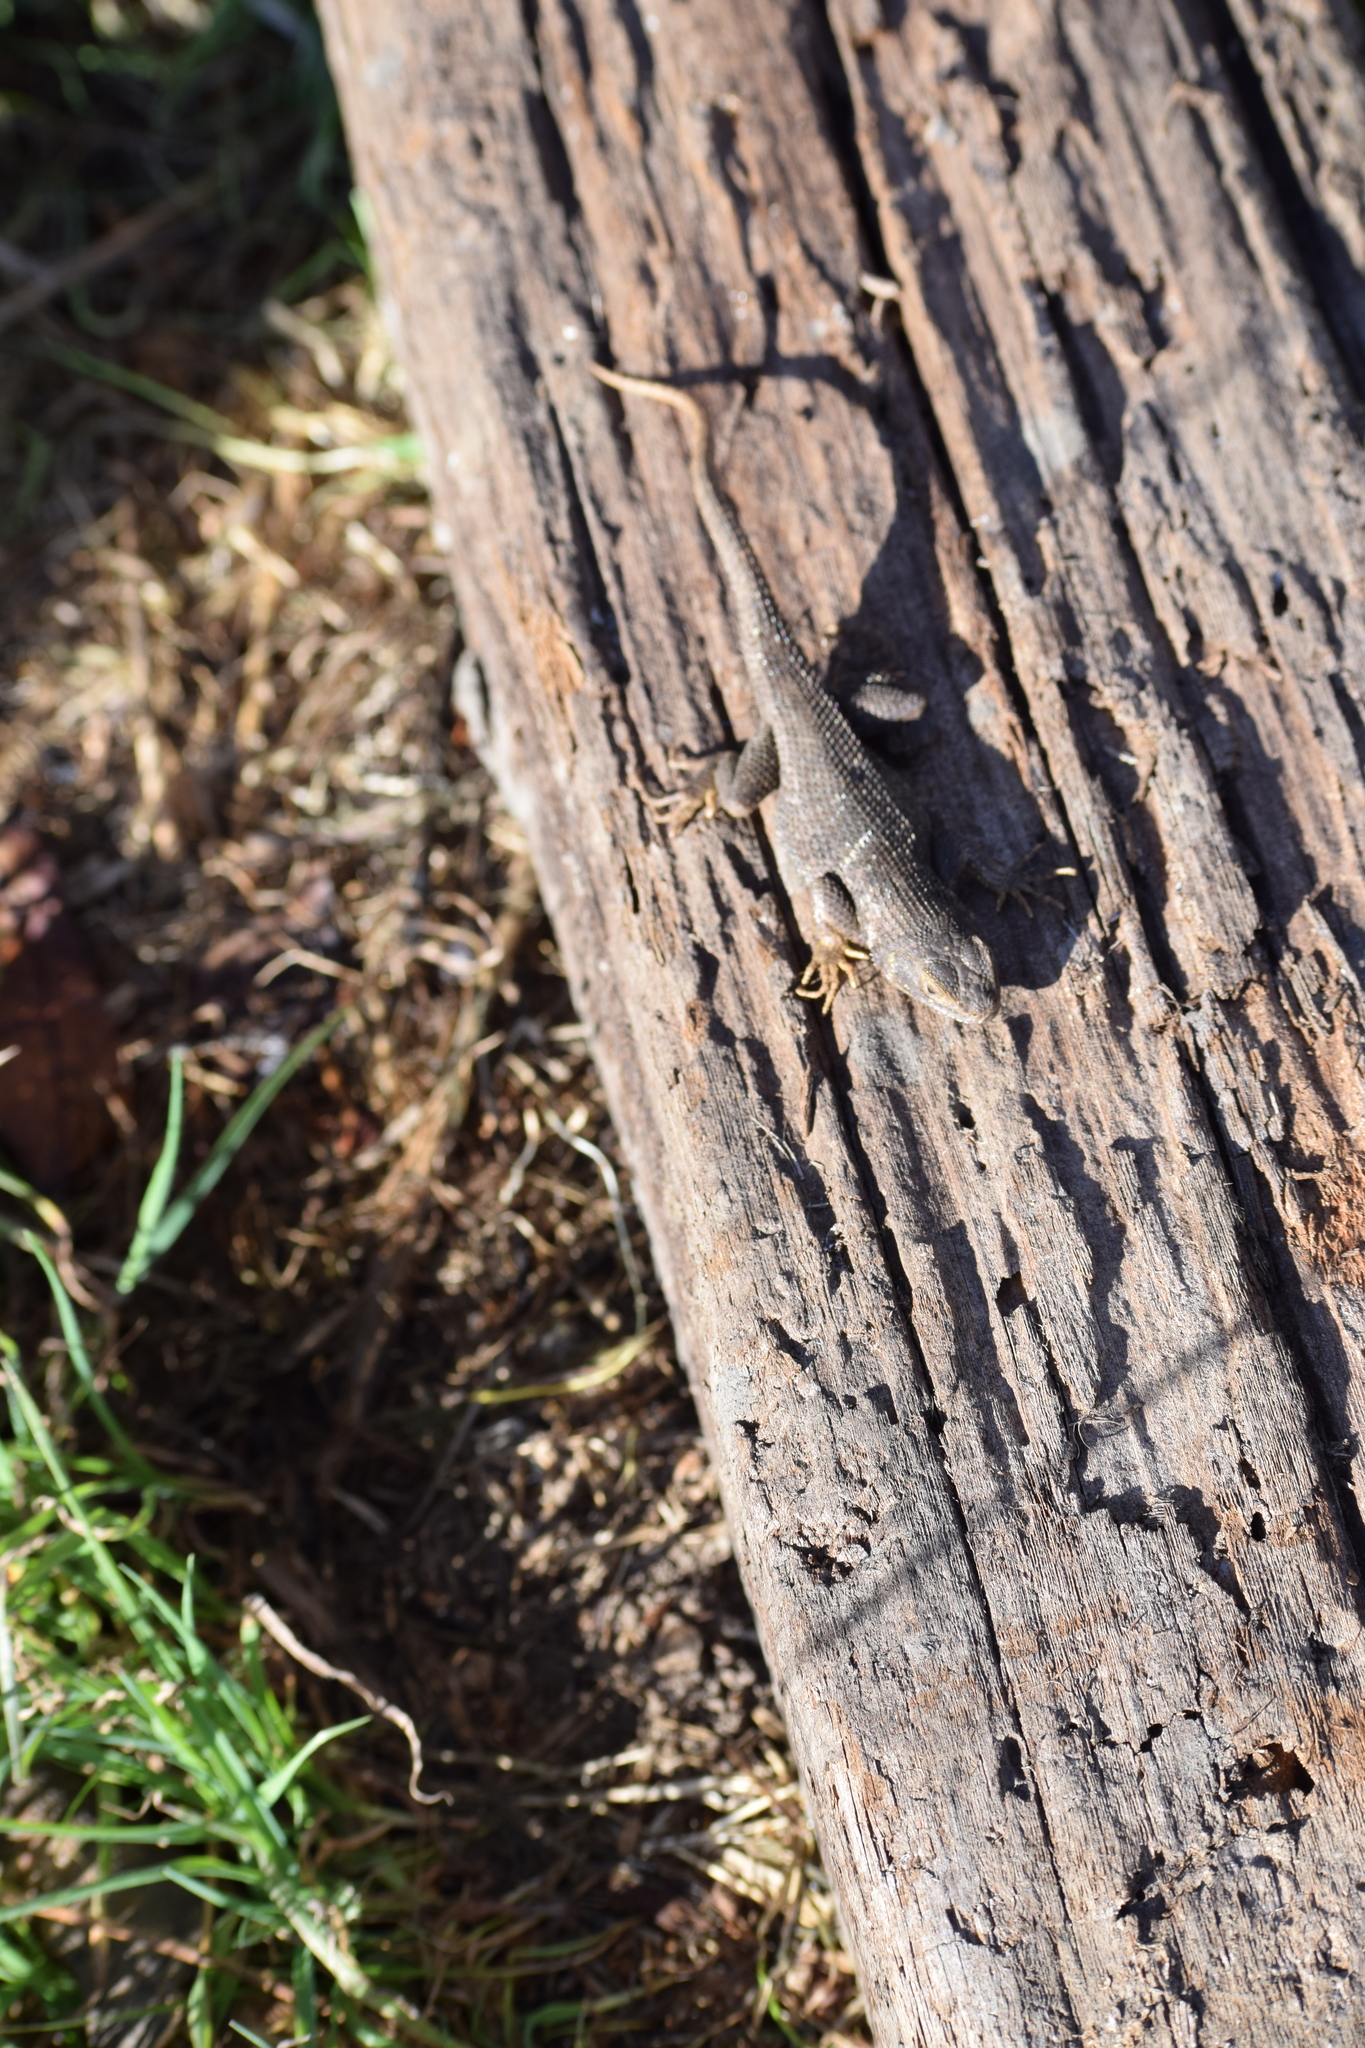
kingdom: Animalia
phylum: Chordata
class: Squamata
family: Phrynosomatidae
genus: Sceloporus
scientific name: Sceloporus occidentalis
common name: Western fence lizard
